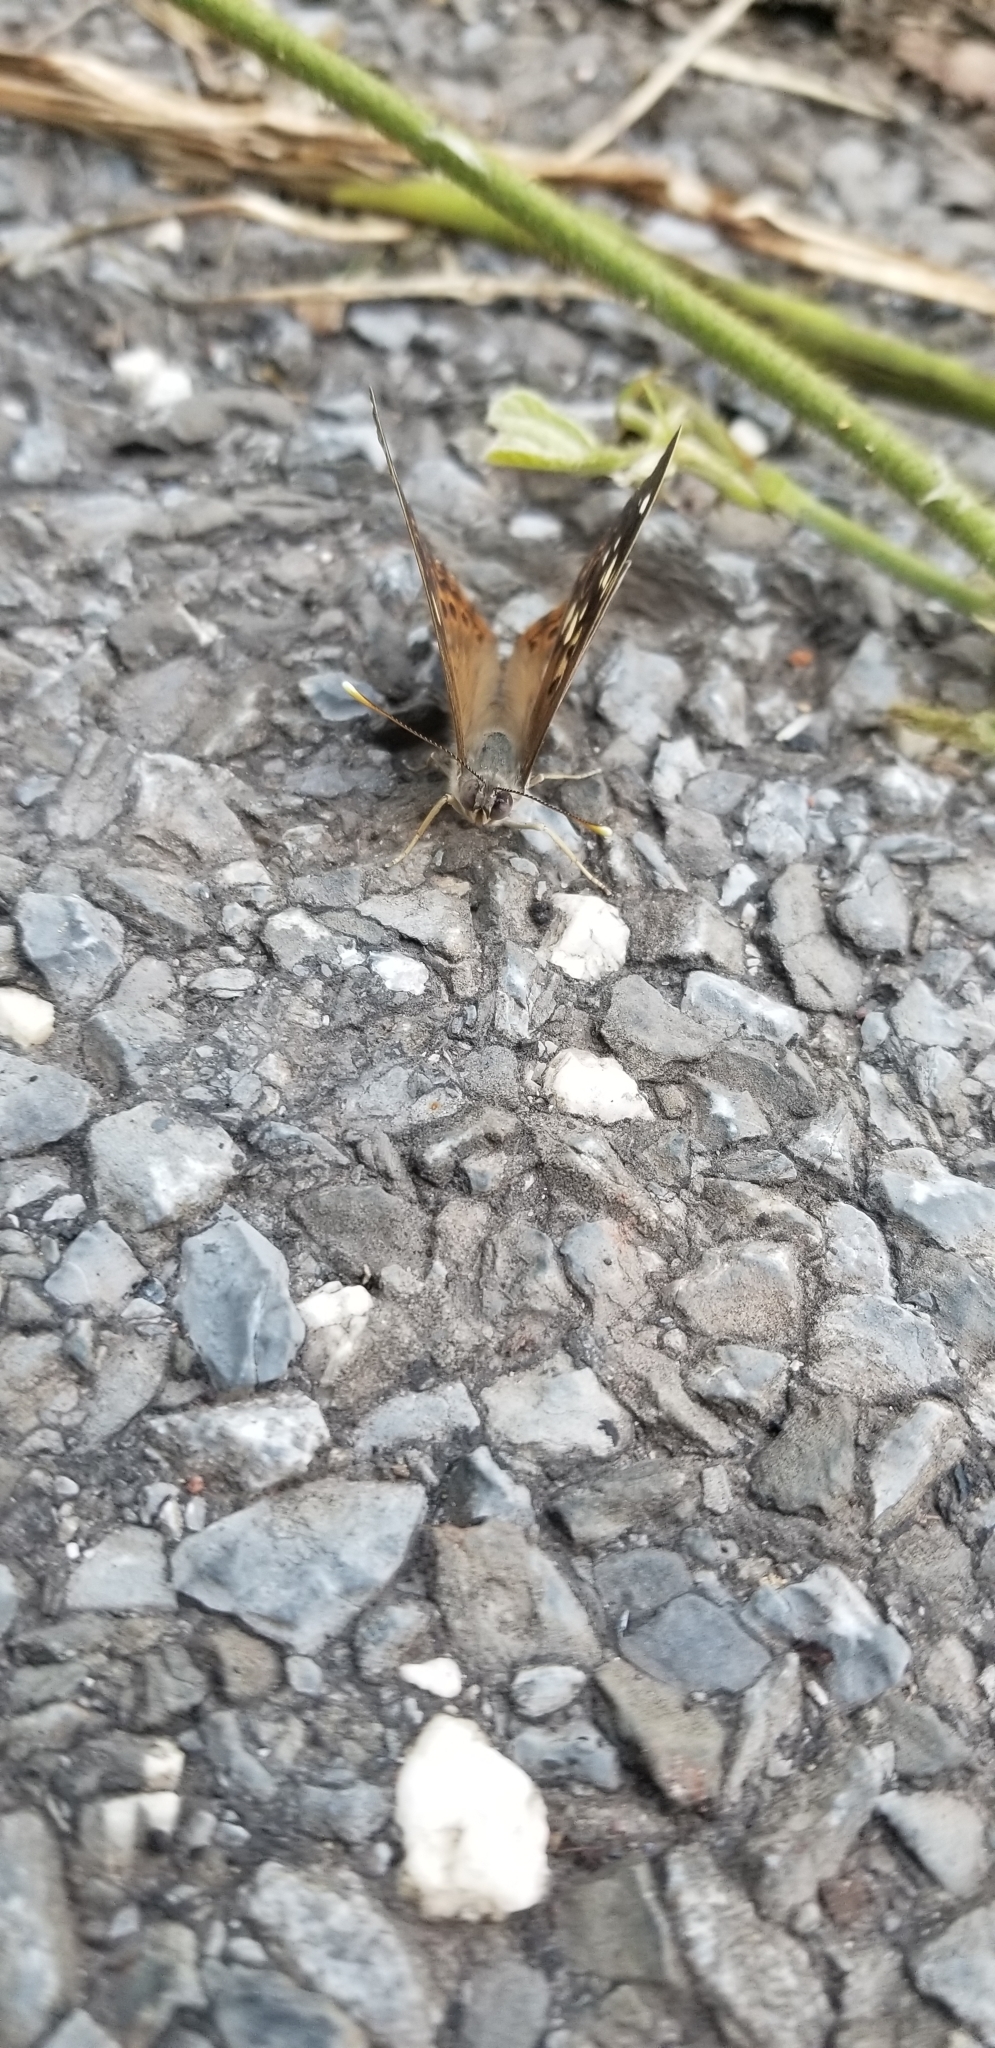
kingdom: Animalia
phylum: Arthropoda
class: Insecta
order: Lepidoptera
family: Nymphalidae
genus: Asterocampa
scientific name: Asterocampa celtis
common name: Hackberry emperor
